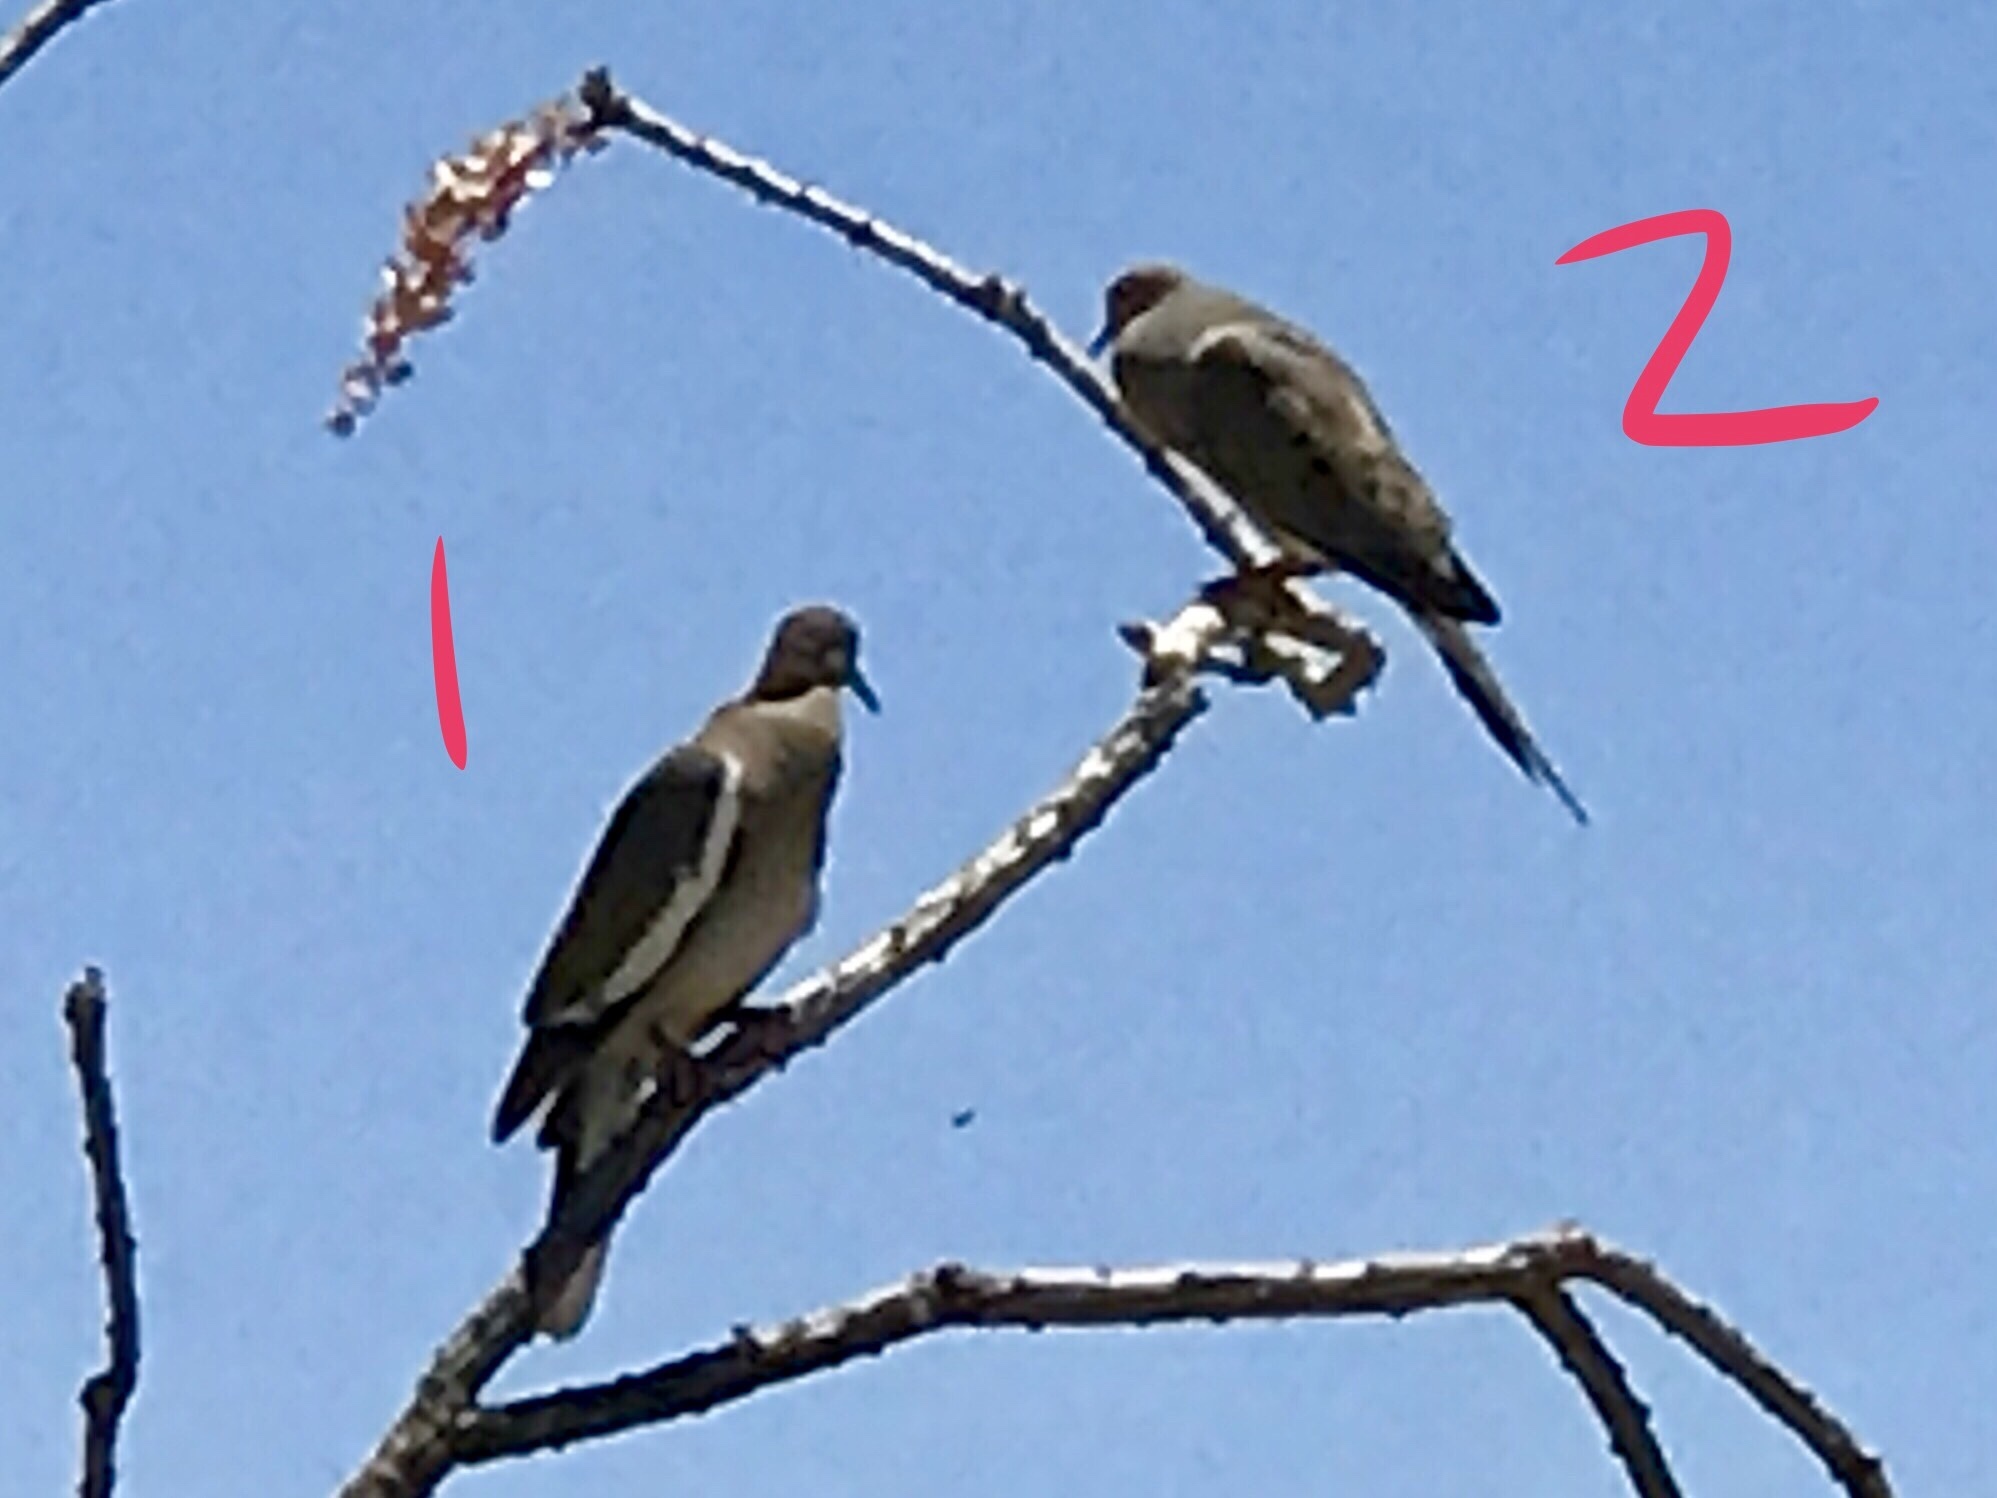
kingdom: Animalia
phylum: Chordata
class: Aves
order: Columbiformes
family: Columbidae
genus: Zenaida
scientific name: Zenaida macroura
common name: Mourning dove
